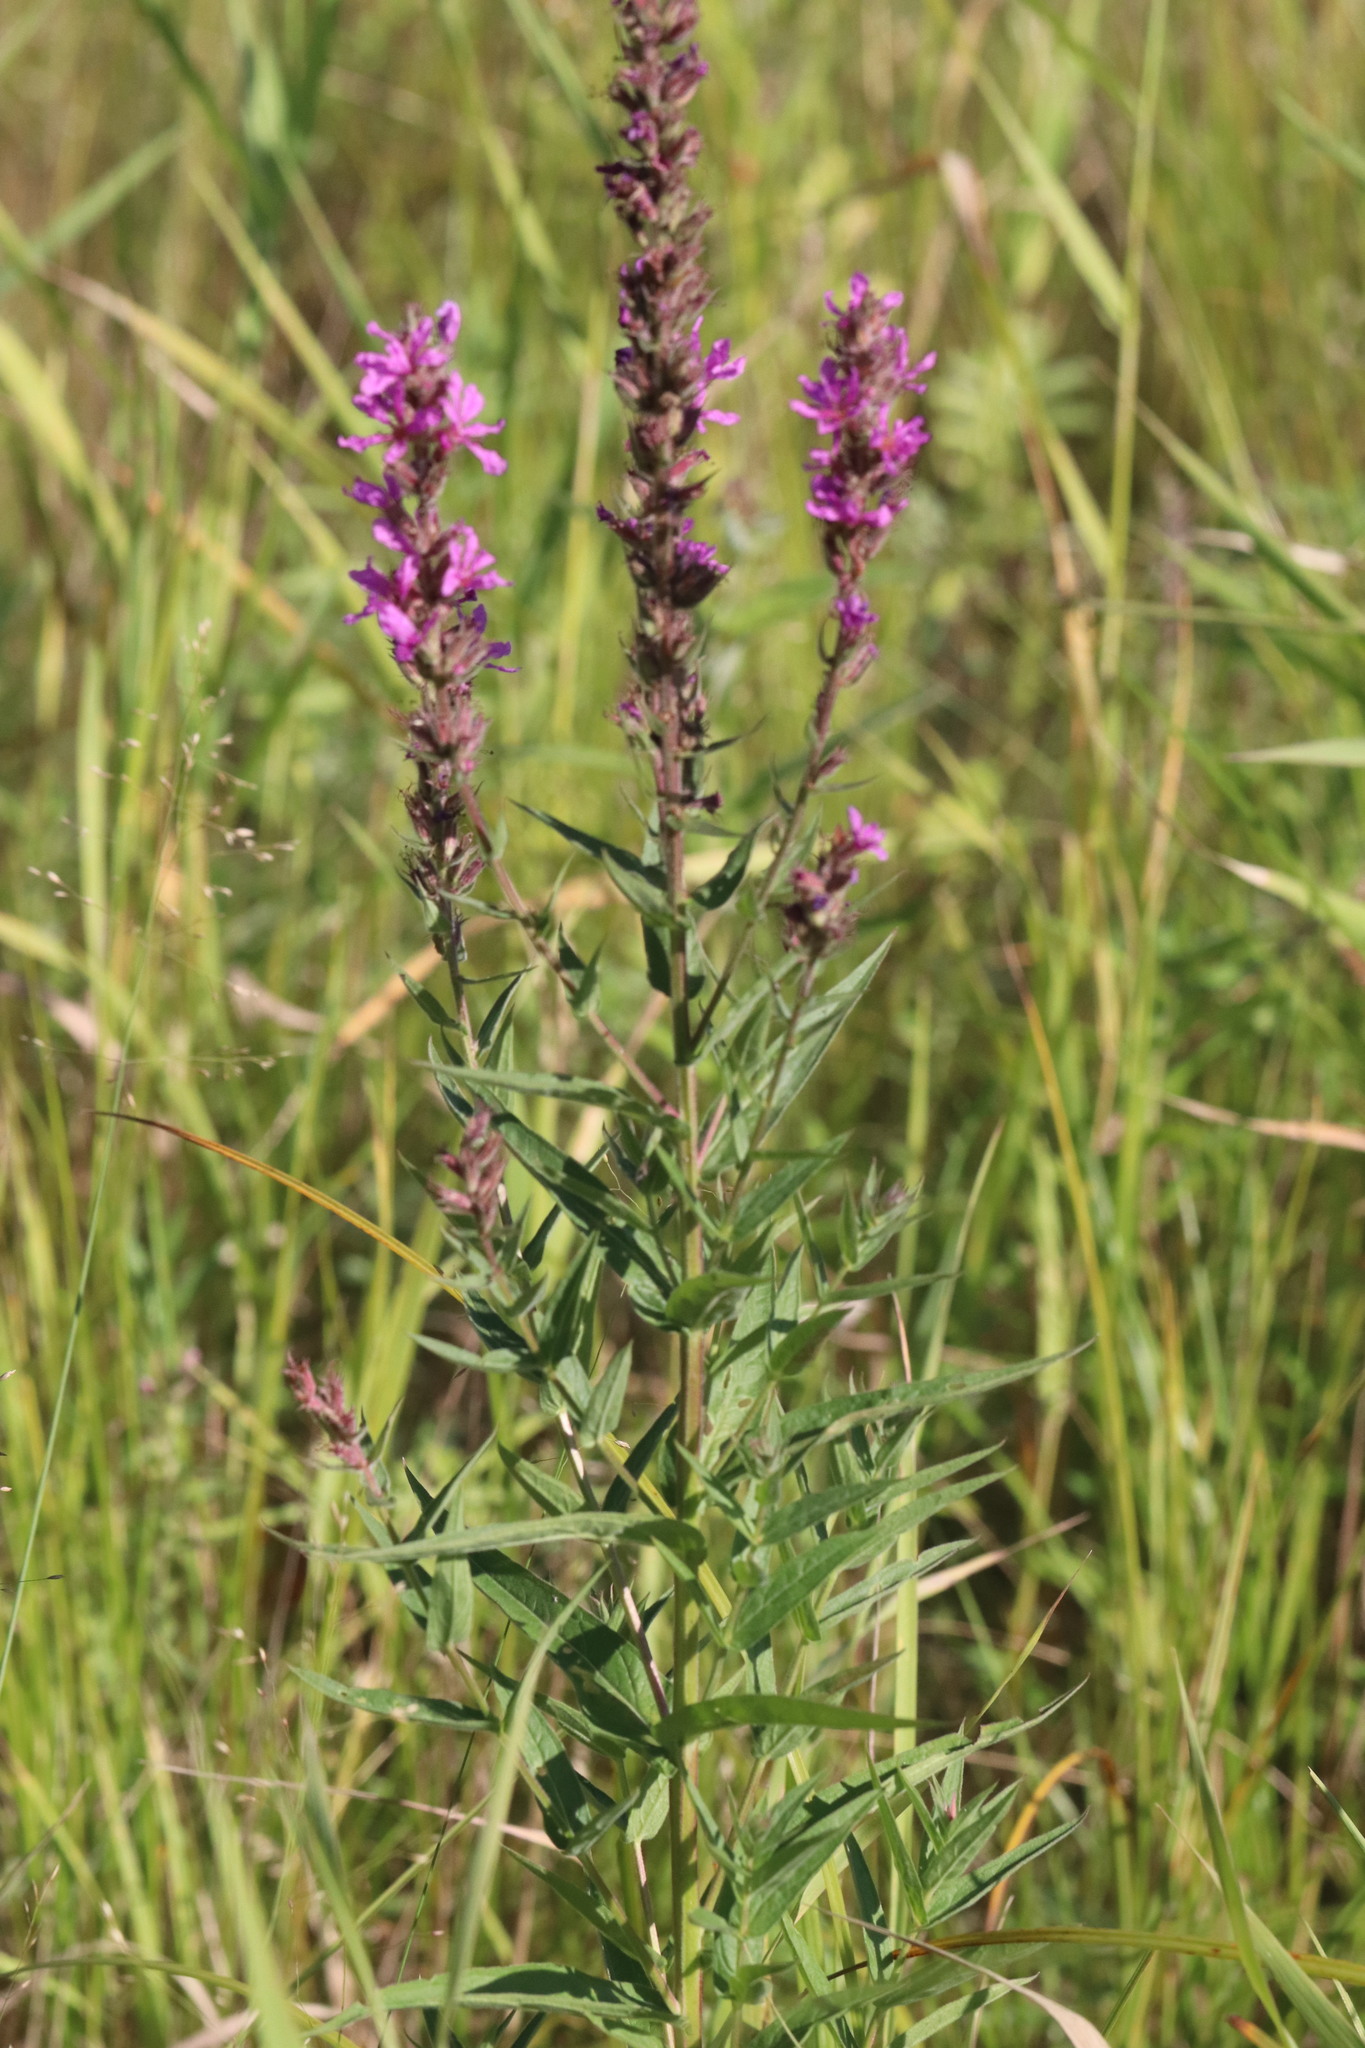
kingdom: Plantae
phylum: Tracheophyta
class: Magnoliopsida
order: Myrtales
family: Lythraceae
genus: Lythrum
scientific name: Lythrum salicaria
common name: Purple loosestrife
